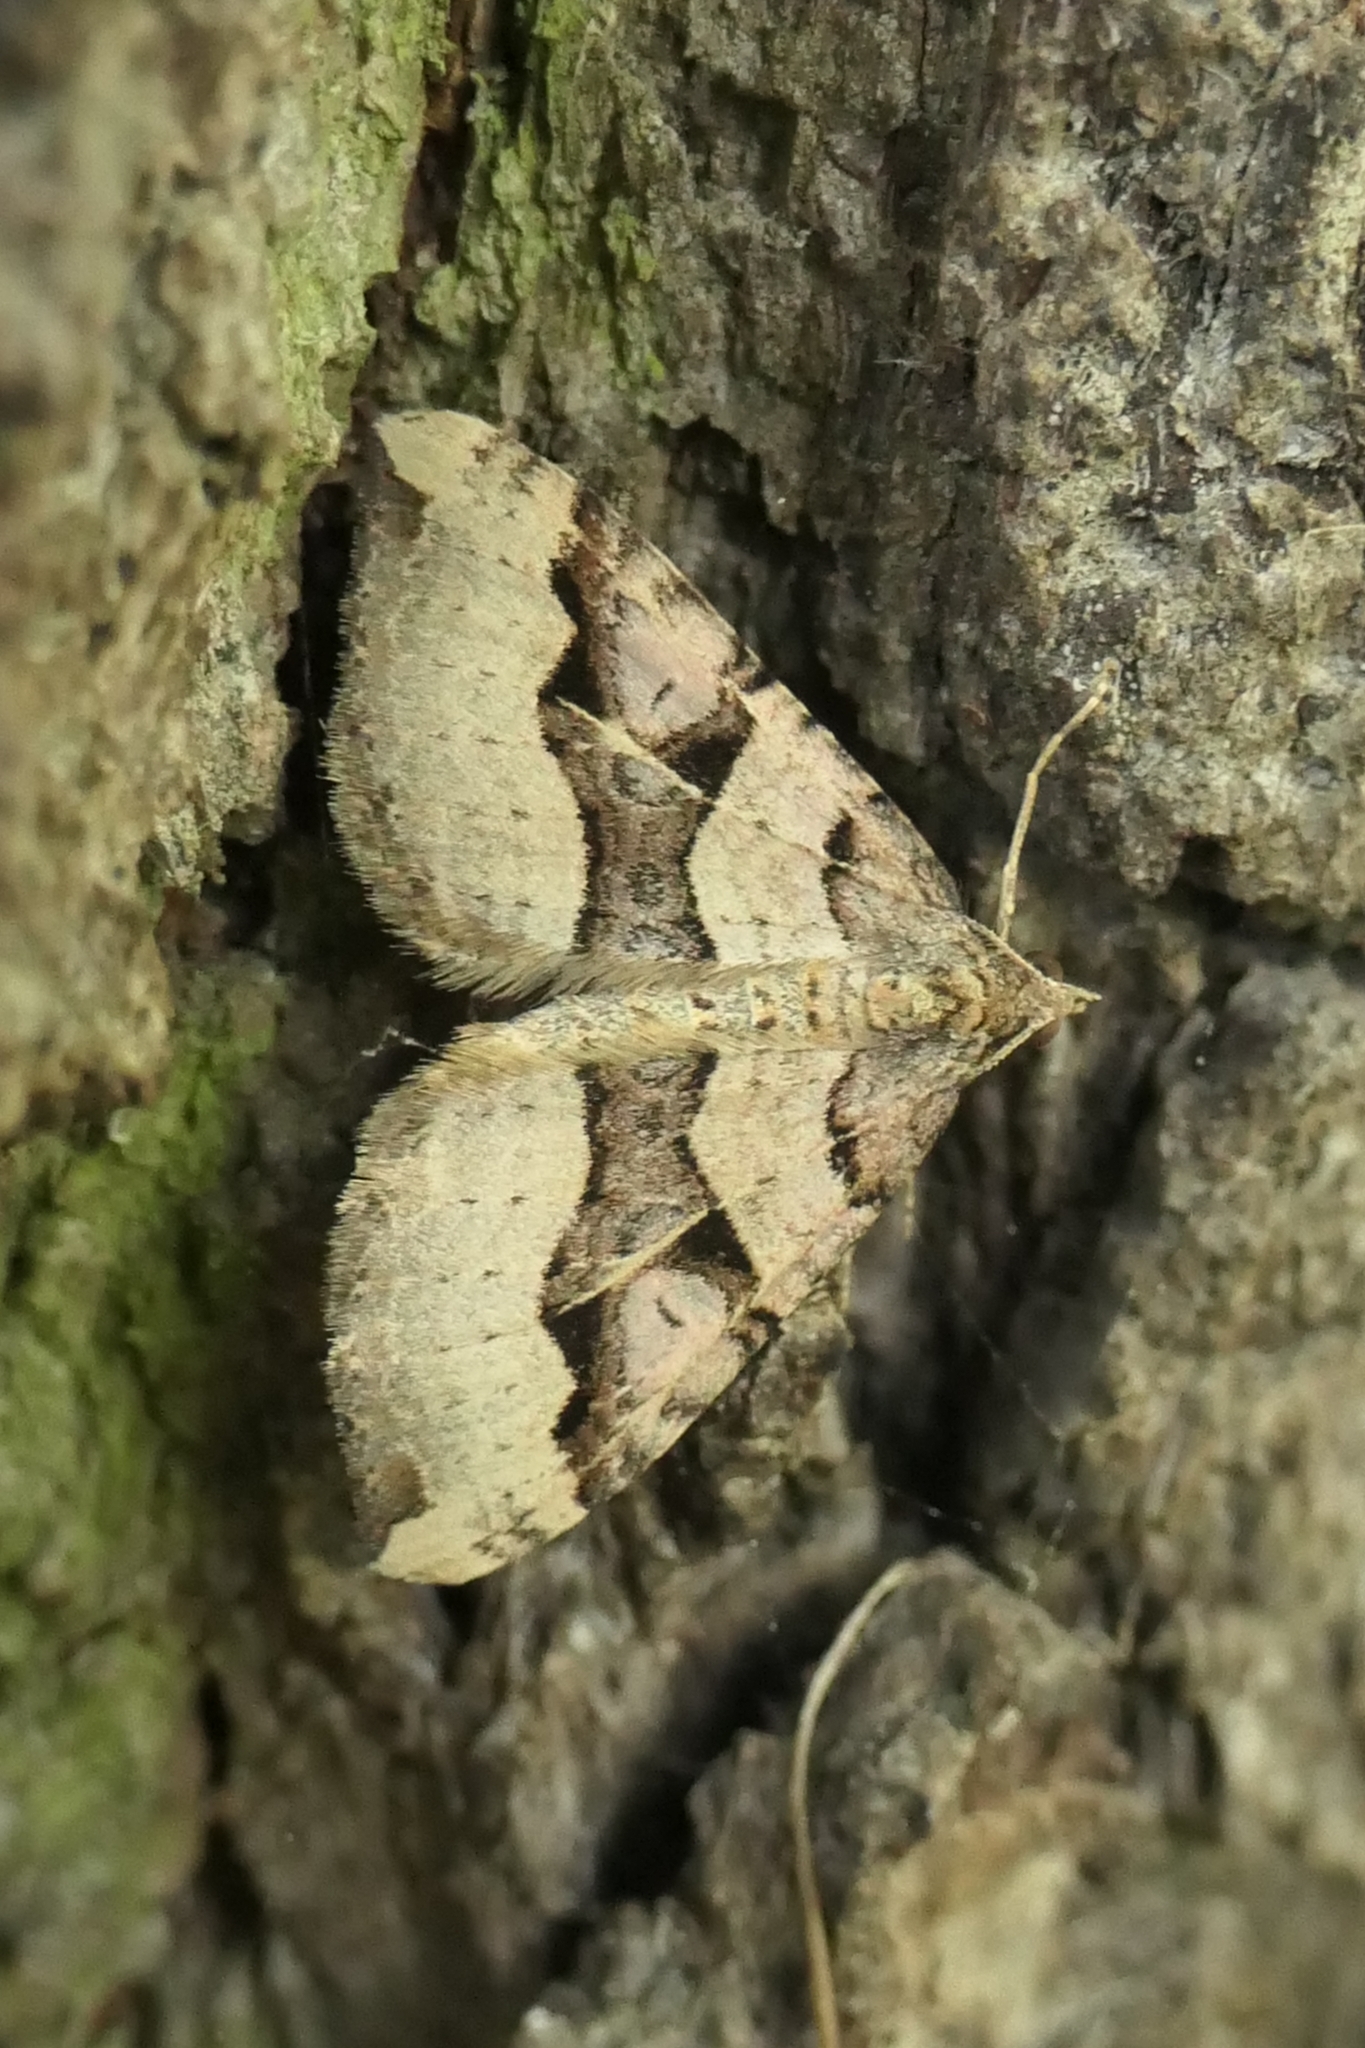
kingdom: Animalia
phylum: Arthropoda
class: Insecta
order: Lepidoptera
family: Geometridae
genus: Xanthorhoe
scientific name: Xanthorhoe semifissata
